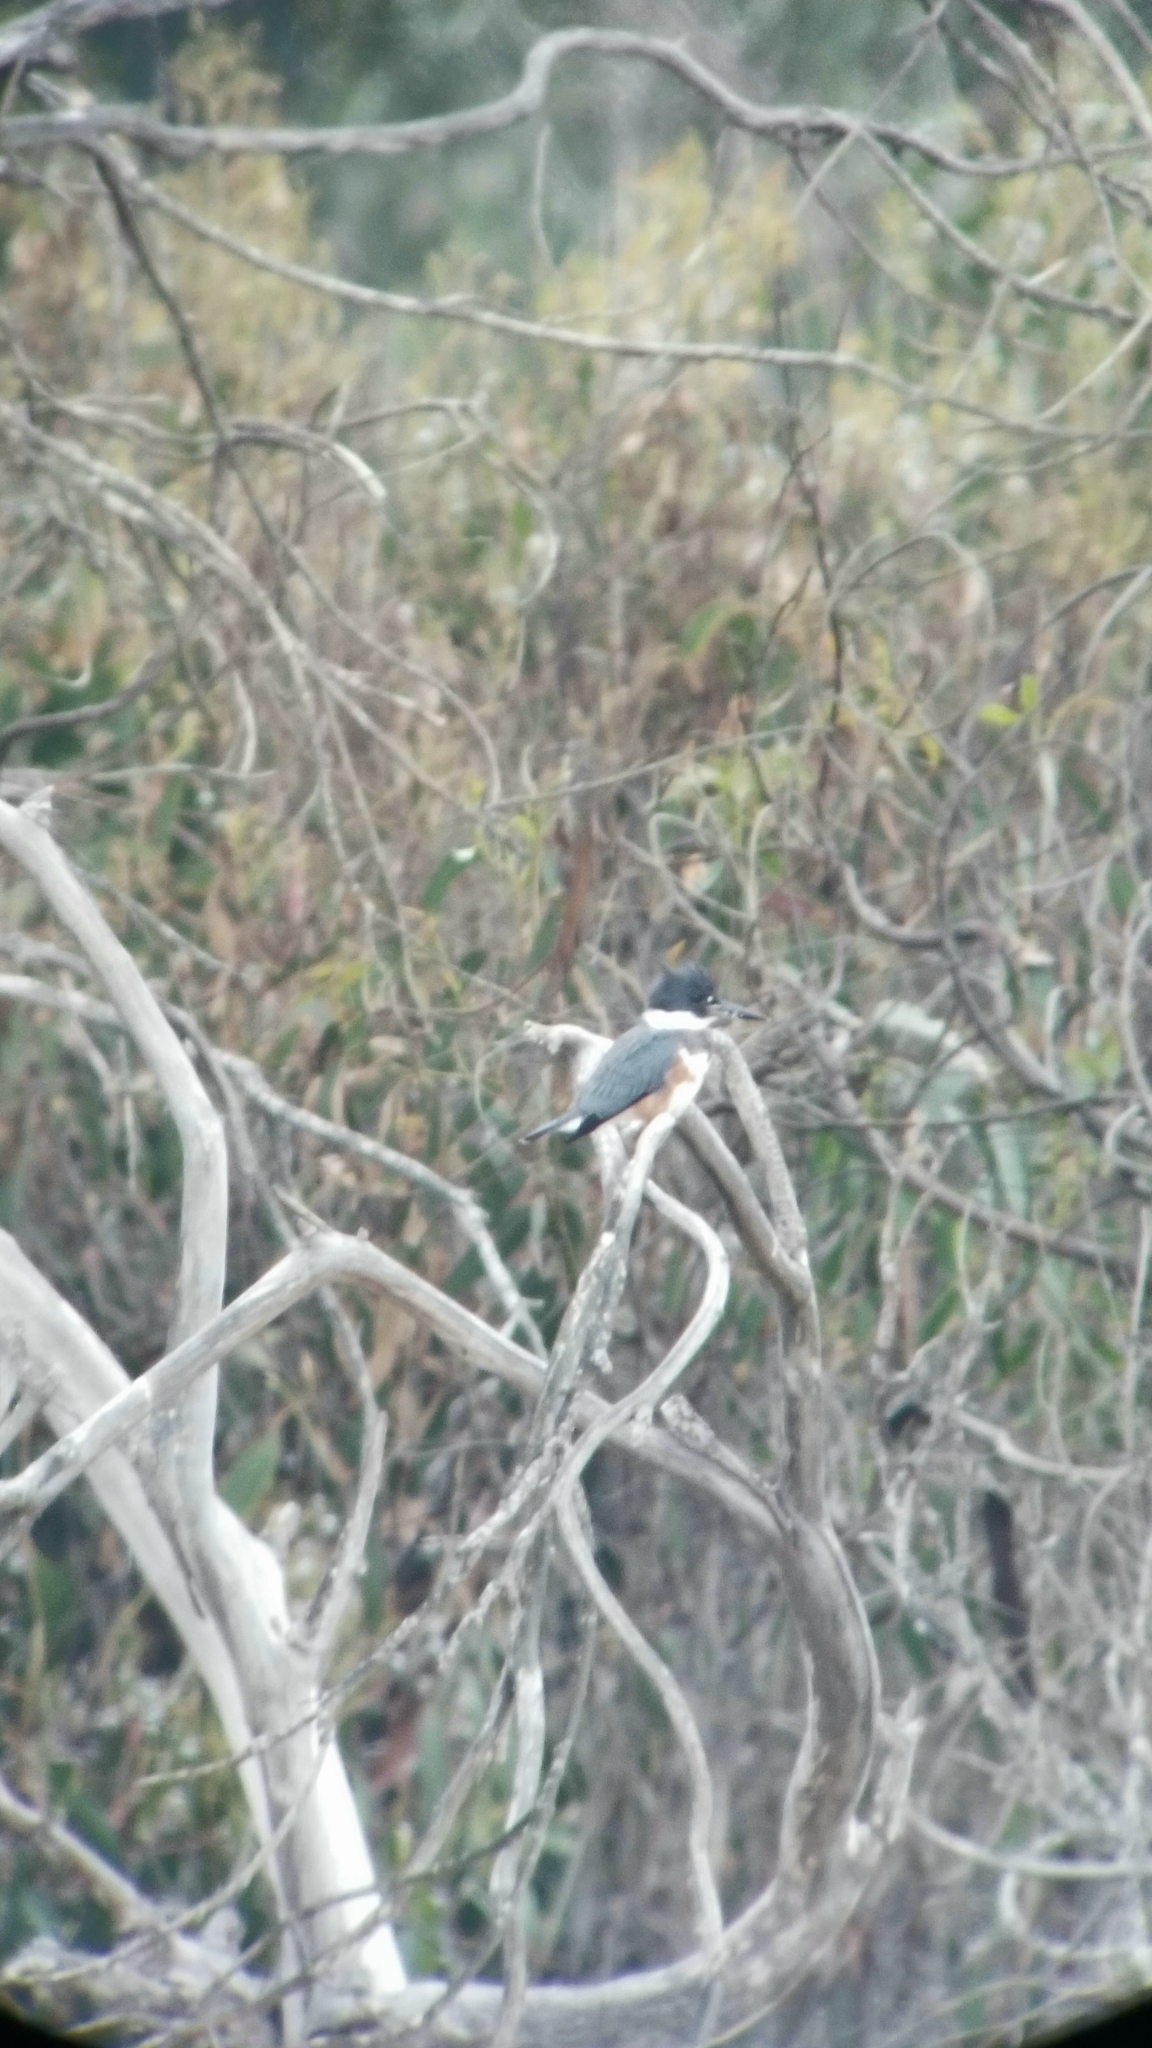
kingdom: Animalia
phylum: Chordata
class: Aves
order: Coraciiformes
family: Alcedinidae
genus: Megaceryle
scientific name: Megaceryle alcyon
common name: Belted kingfisher
